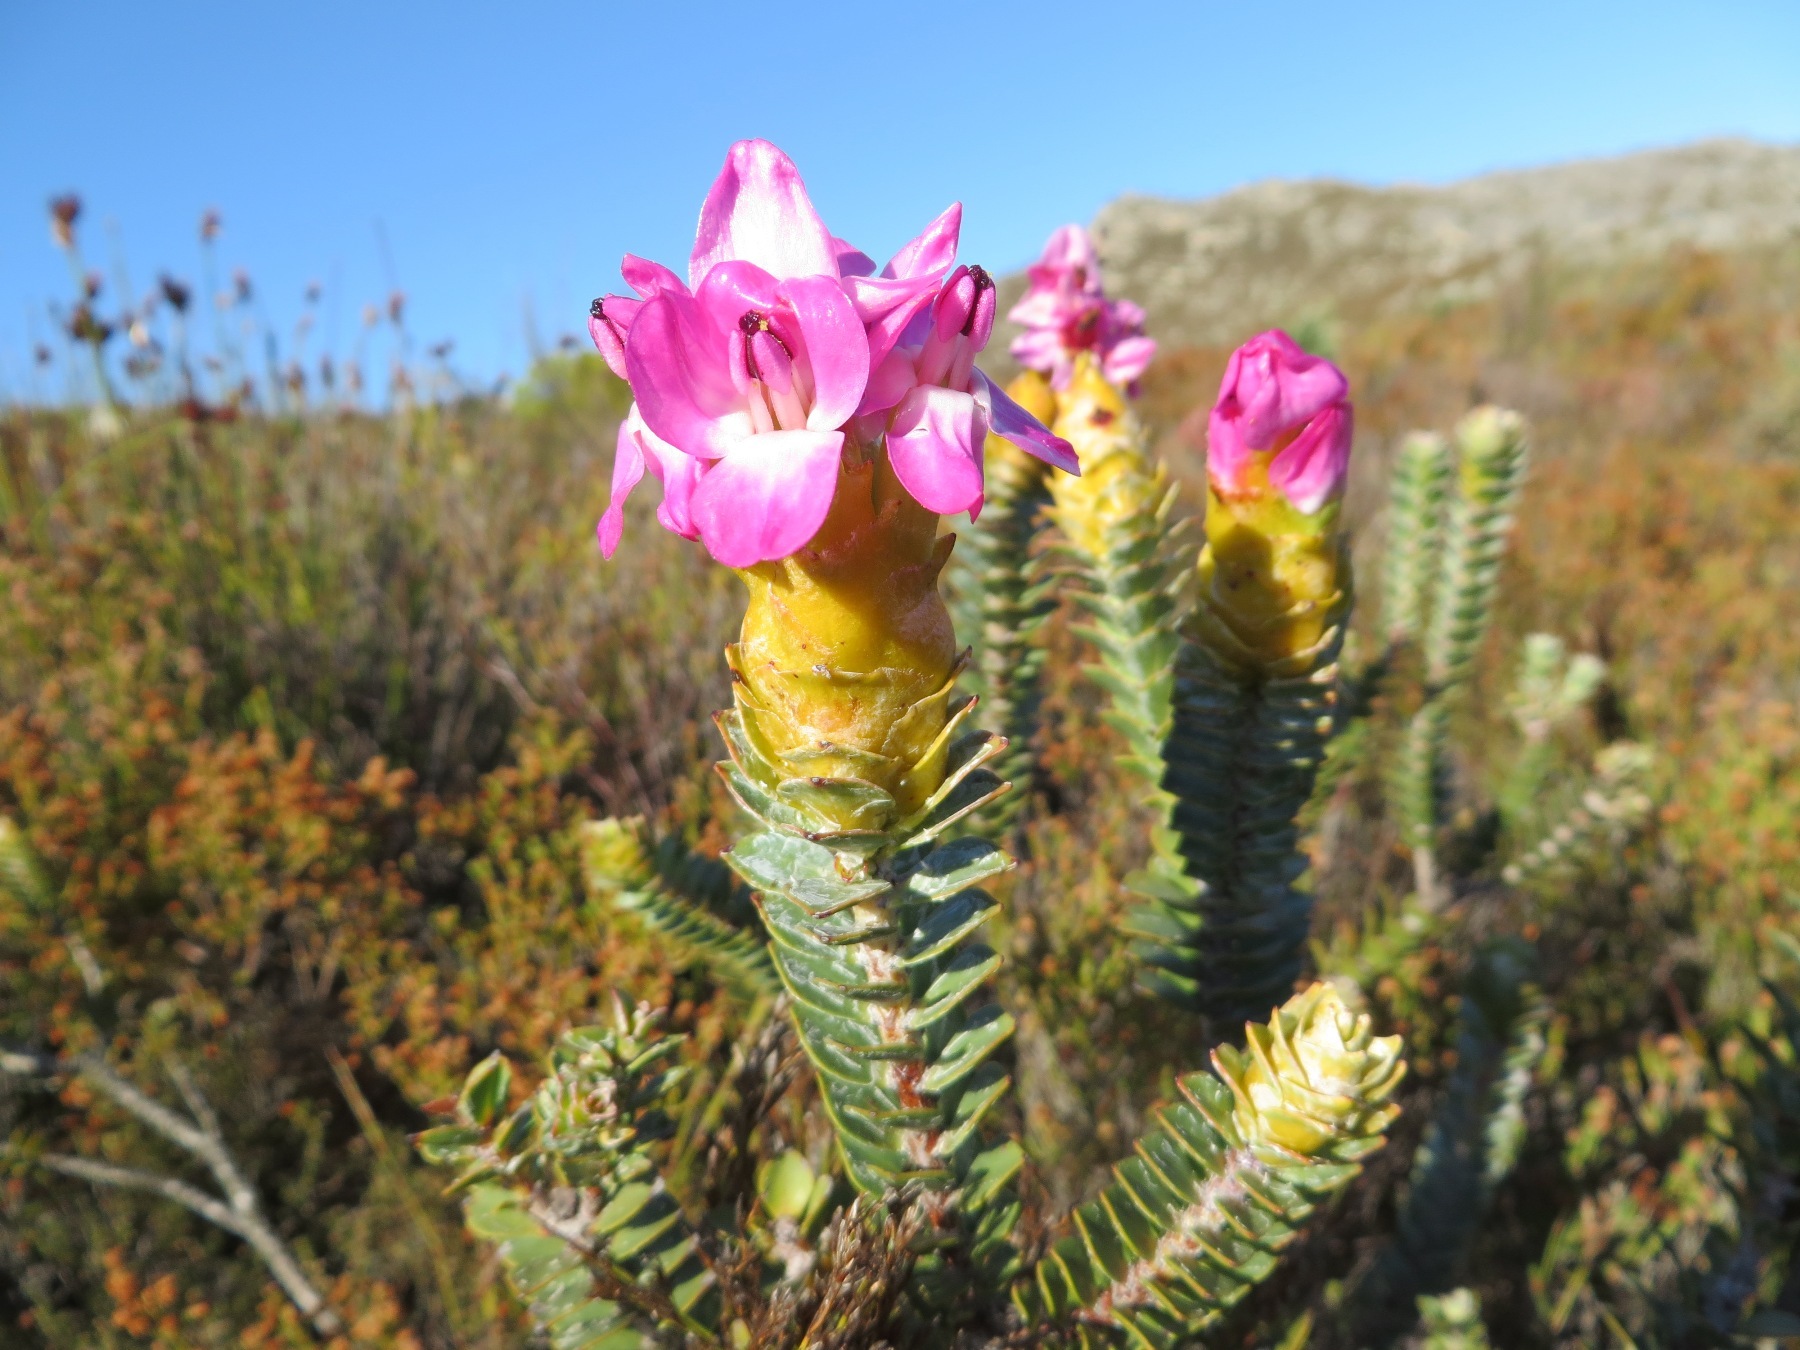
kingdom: Plantae
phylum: Tracheophyta
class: Magnoliopsida
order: Myrtales
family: Penaeaceae
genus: Saltera
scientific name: Saltera sarcocolla
